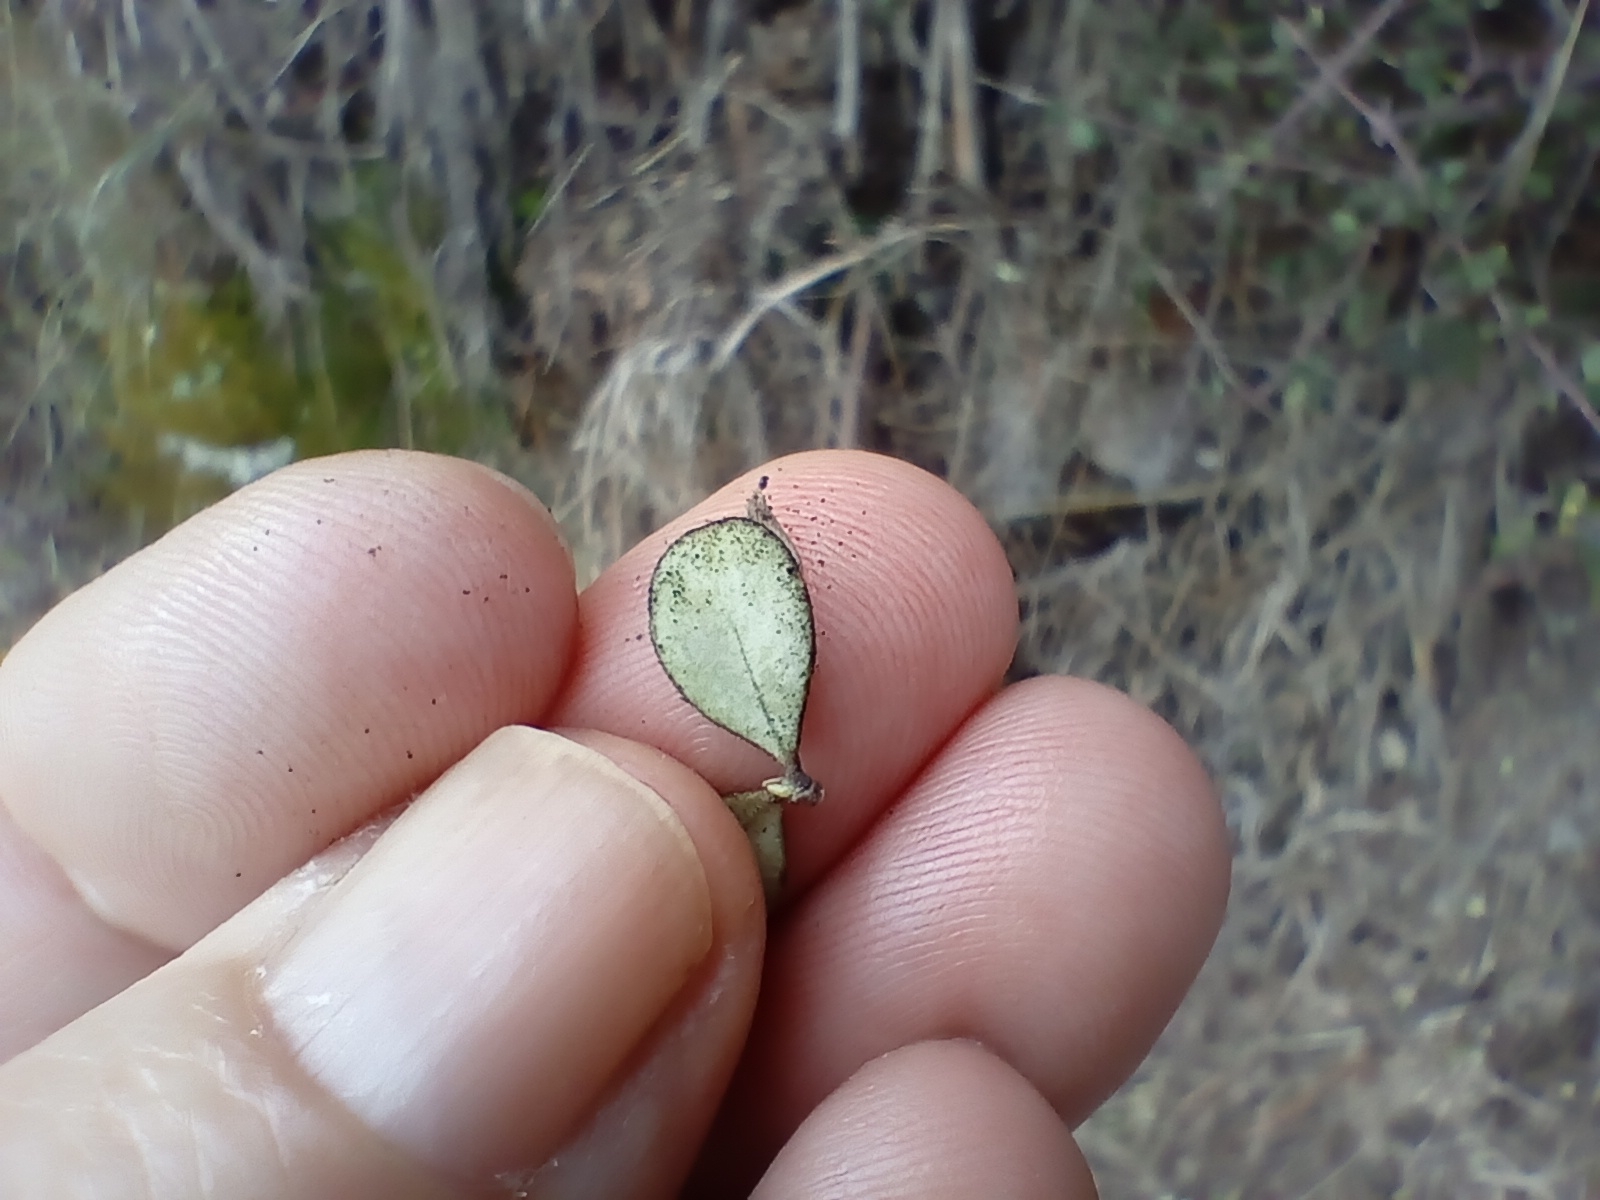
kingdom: Plantae
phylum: Tracheophyta
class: Magnoliopsida
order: Gentianales
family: Rubiaceae
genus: Coprosma
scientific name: Coprosma crassifolia
